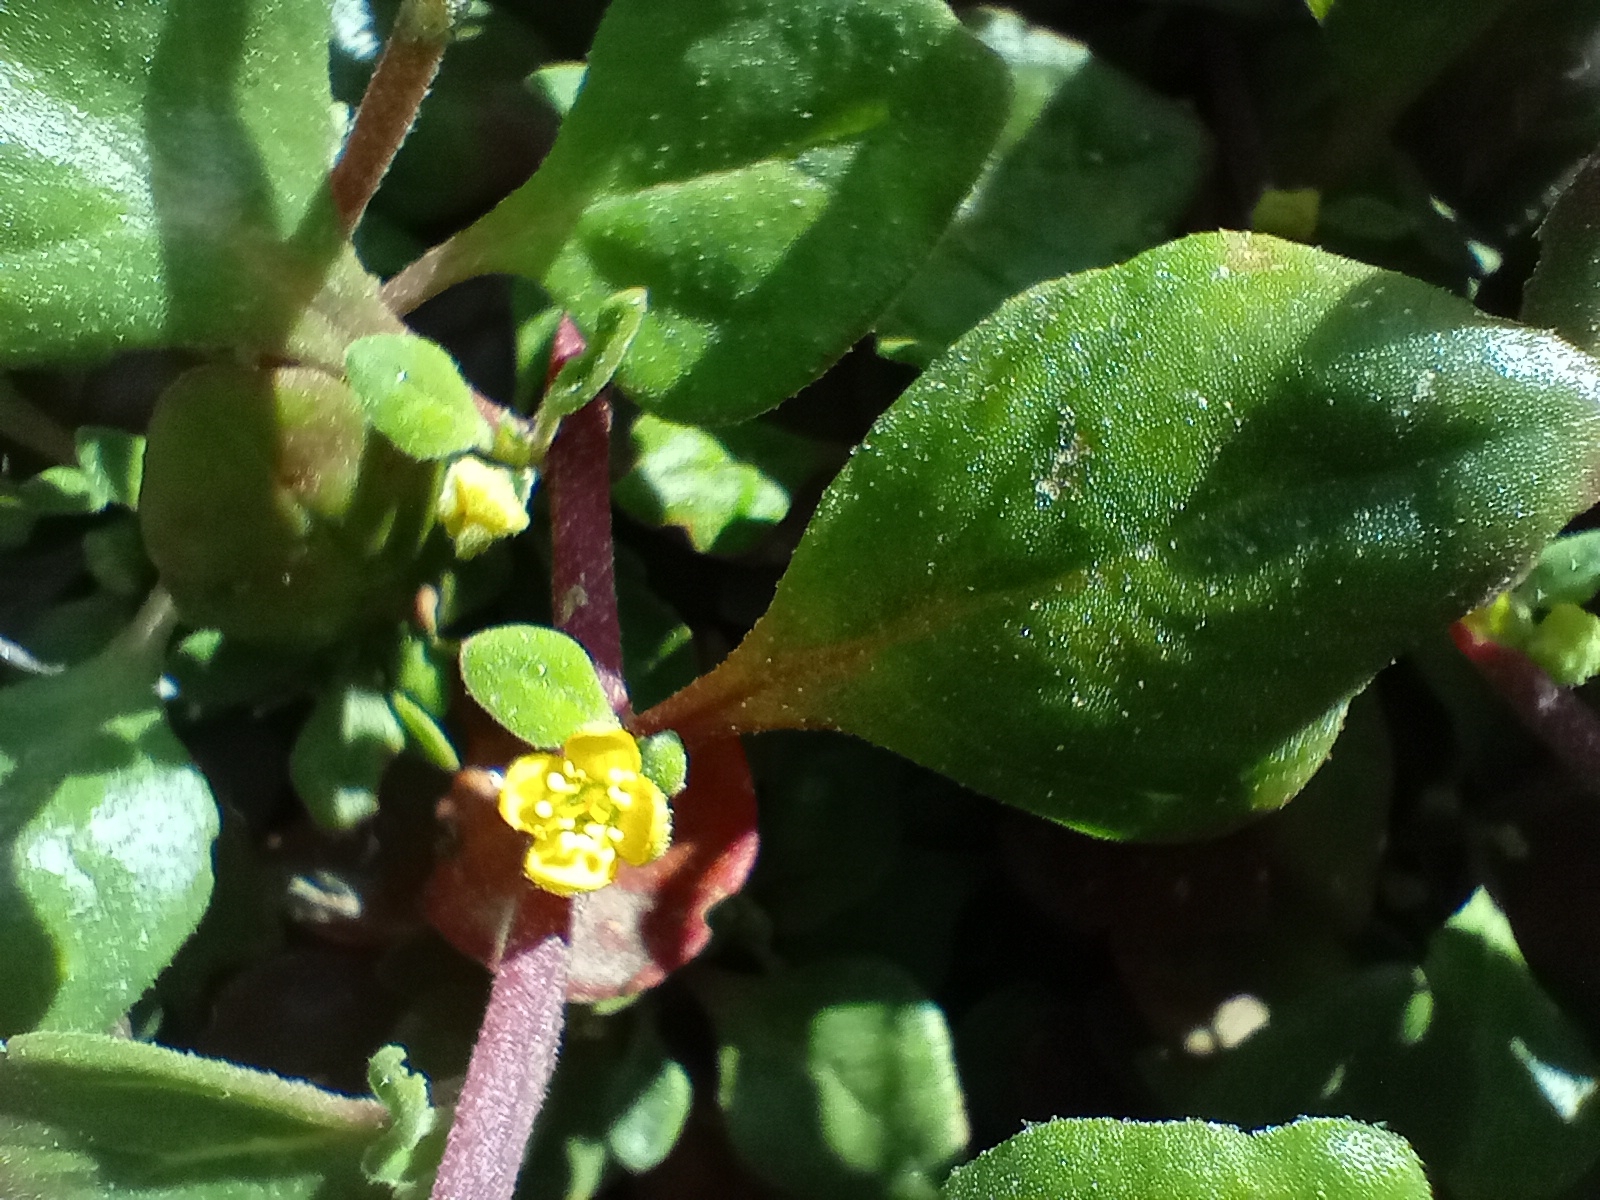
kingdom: Plantae
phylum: Tracheophyta
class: Magnoliopsida
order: Caryophyllales
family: Aizoaceae
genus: Tetragonia
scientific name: Tetragonia implexicoma
